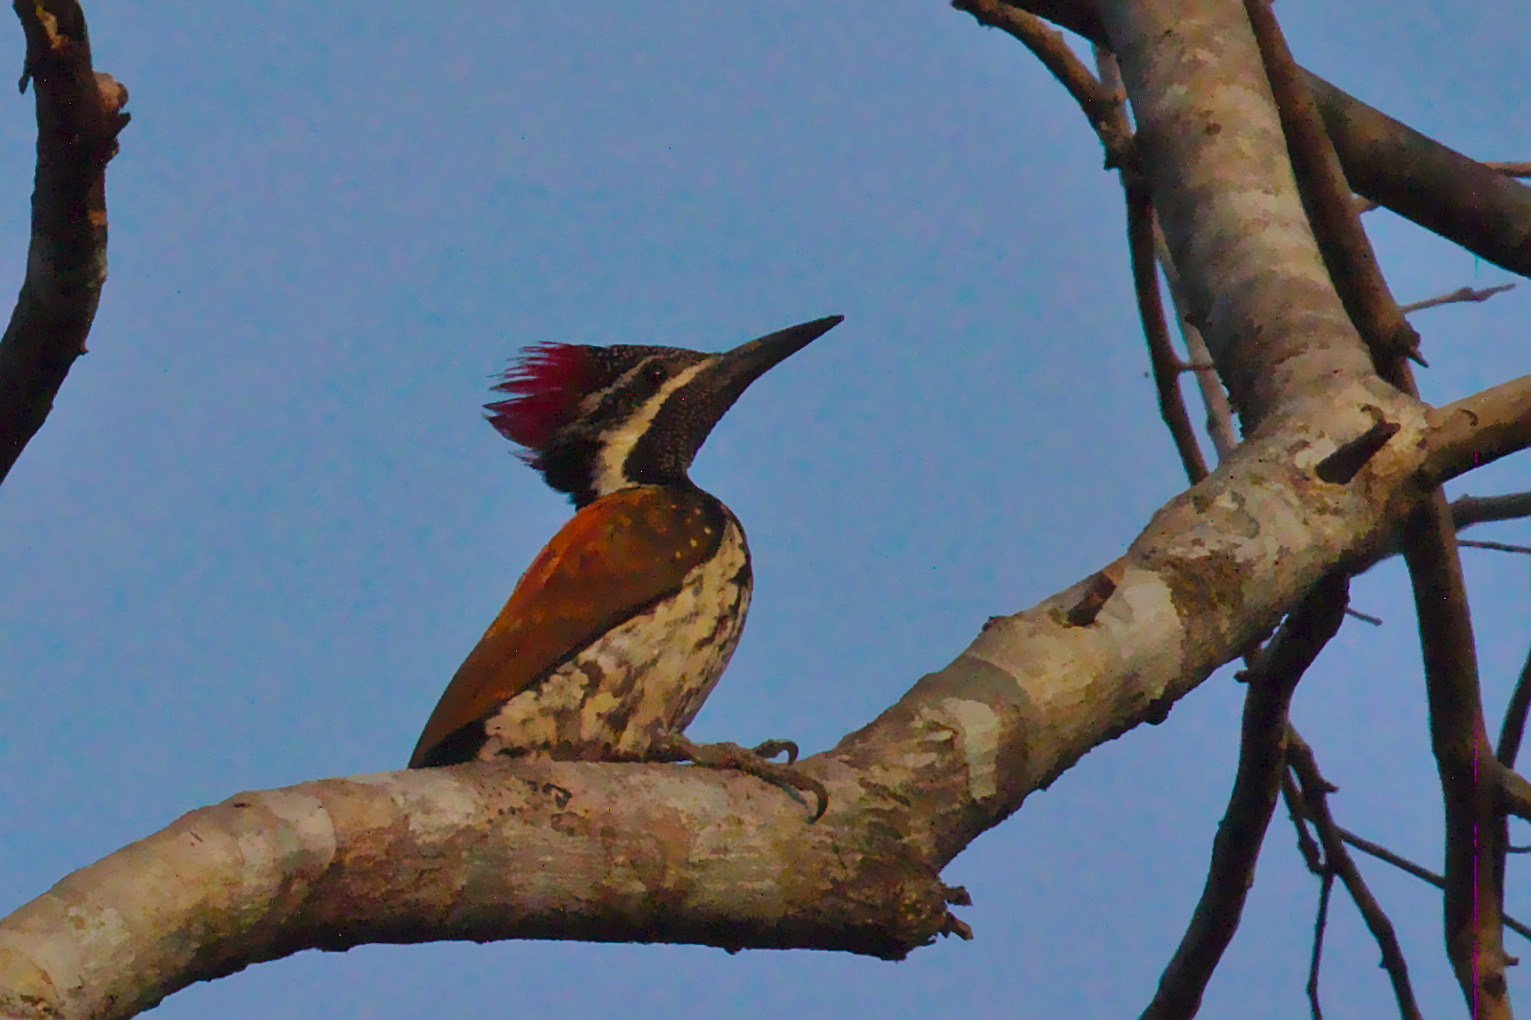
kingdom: Animalia
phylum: Chordata
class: Aves
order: Piciformes
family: Picidae
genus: Dinopium
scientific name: Dinopium benghalense
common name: Black-rumped flameback
